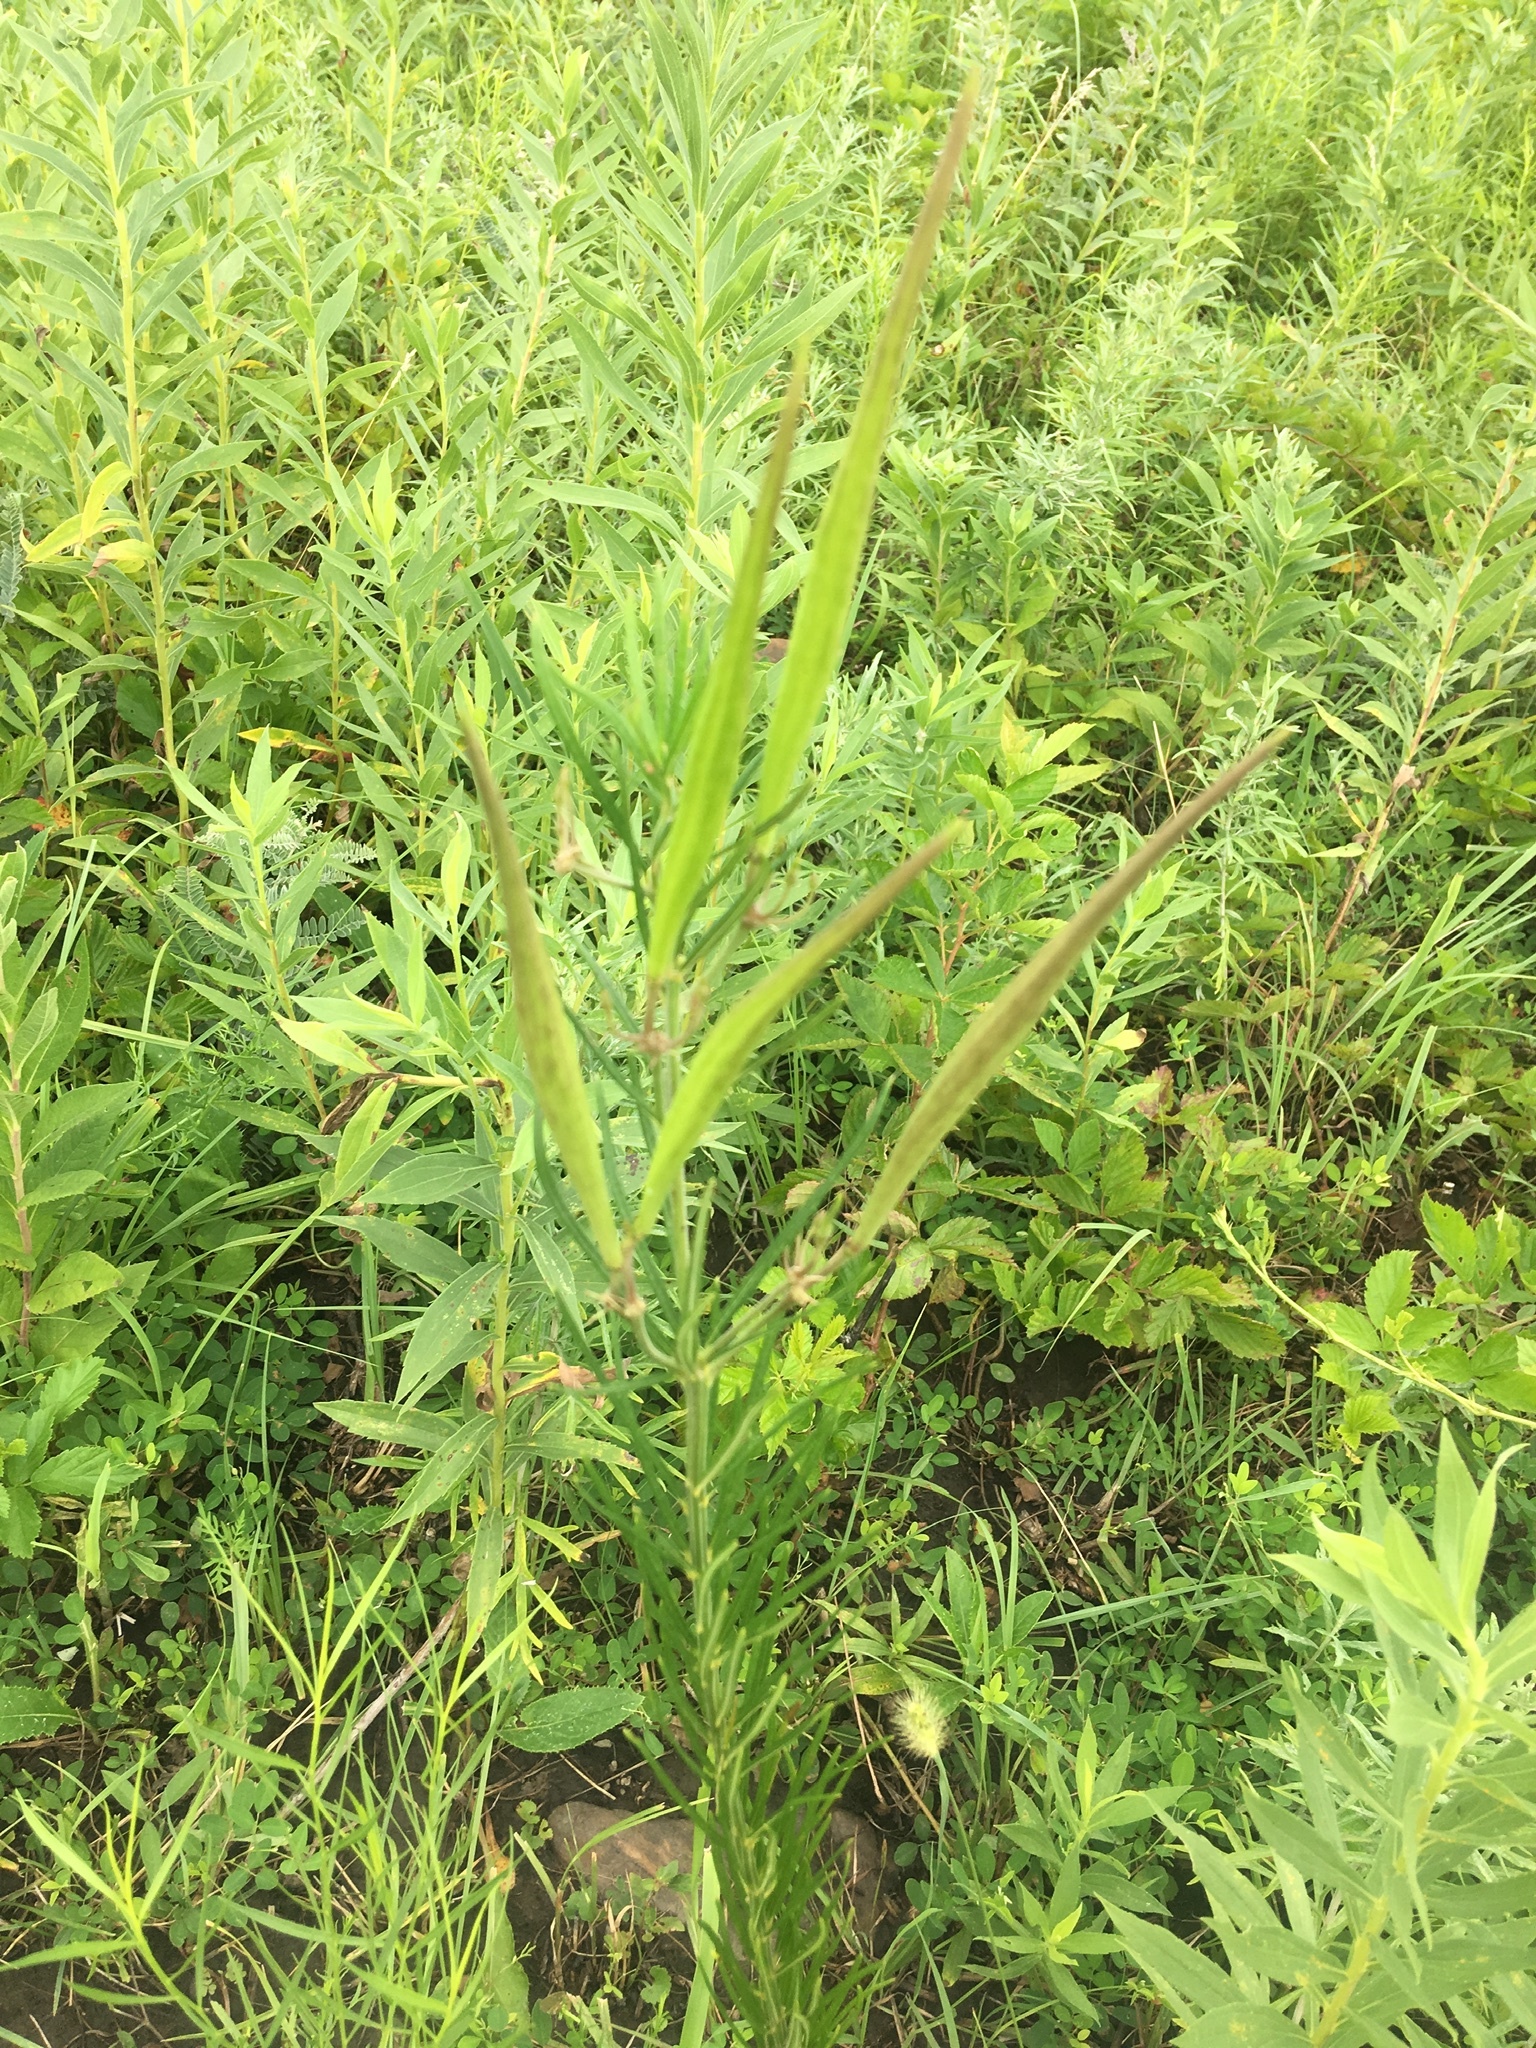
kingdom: Plantae
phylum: Tracheophyta
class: Magnoliopsida
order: Gentianales
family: Apocynaceae
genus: Asclepias
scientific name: Asclepias verticillata
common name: Eastern whorled milkweed
